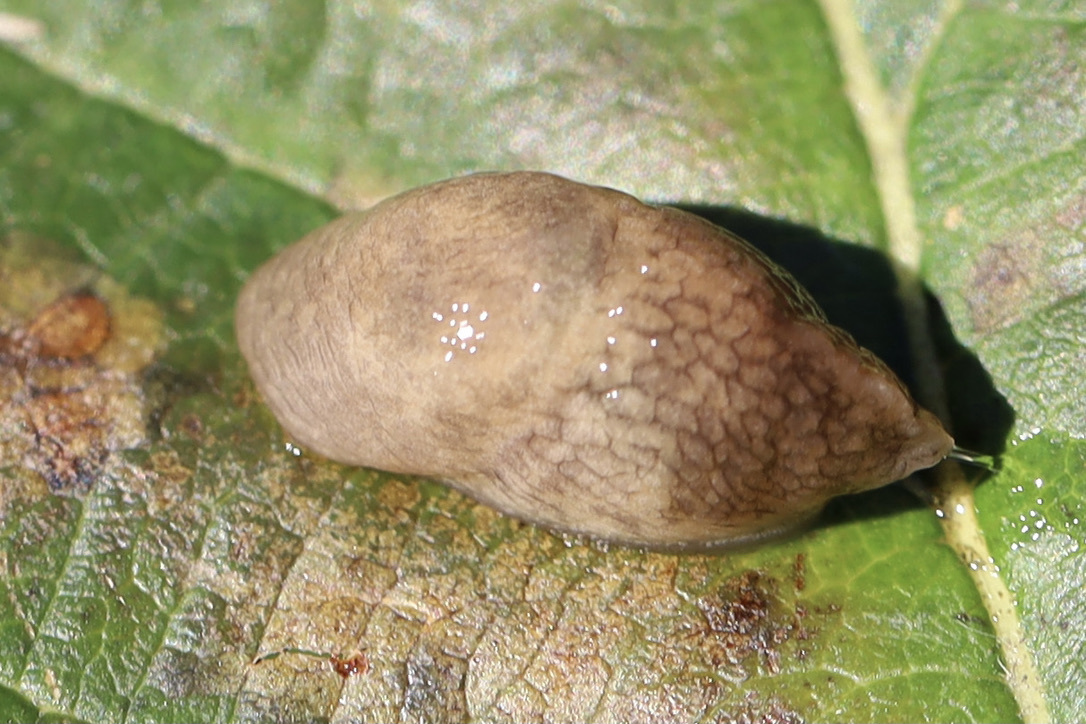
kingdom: Animalia
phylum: Mollusca
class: Gastropoda
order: Stylommatophora
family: Agriolimacidae
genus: Deroceras
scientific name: Deroceras reticulatum
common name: Gray field slug
